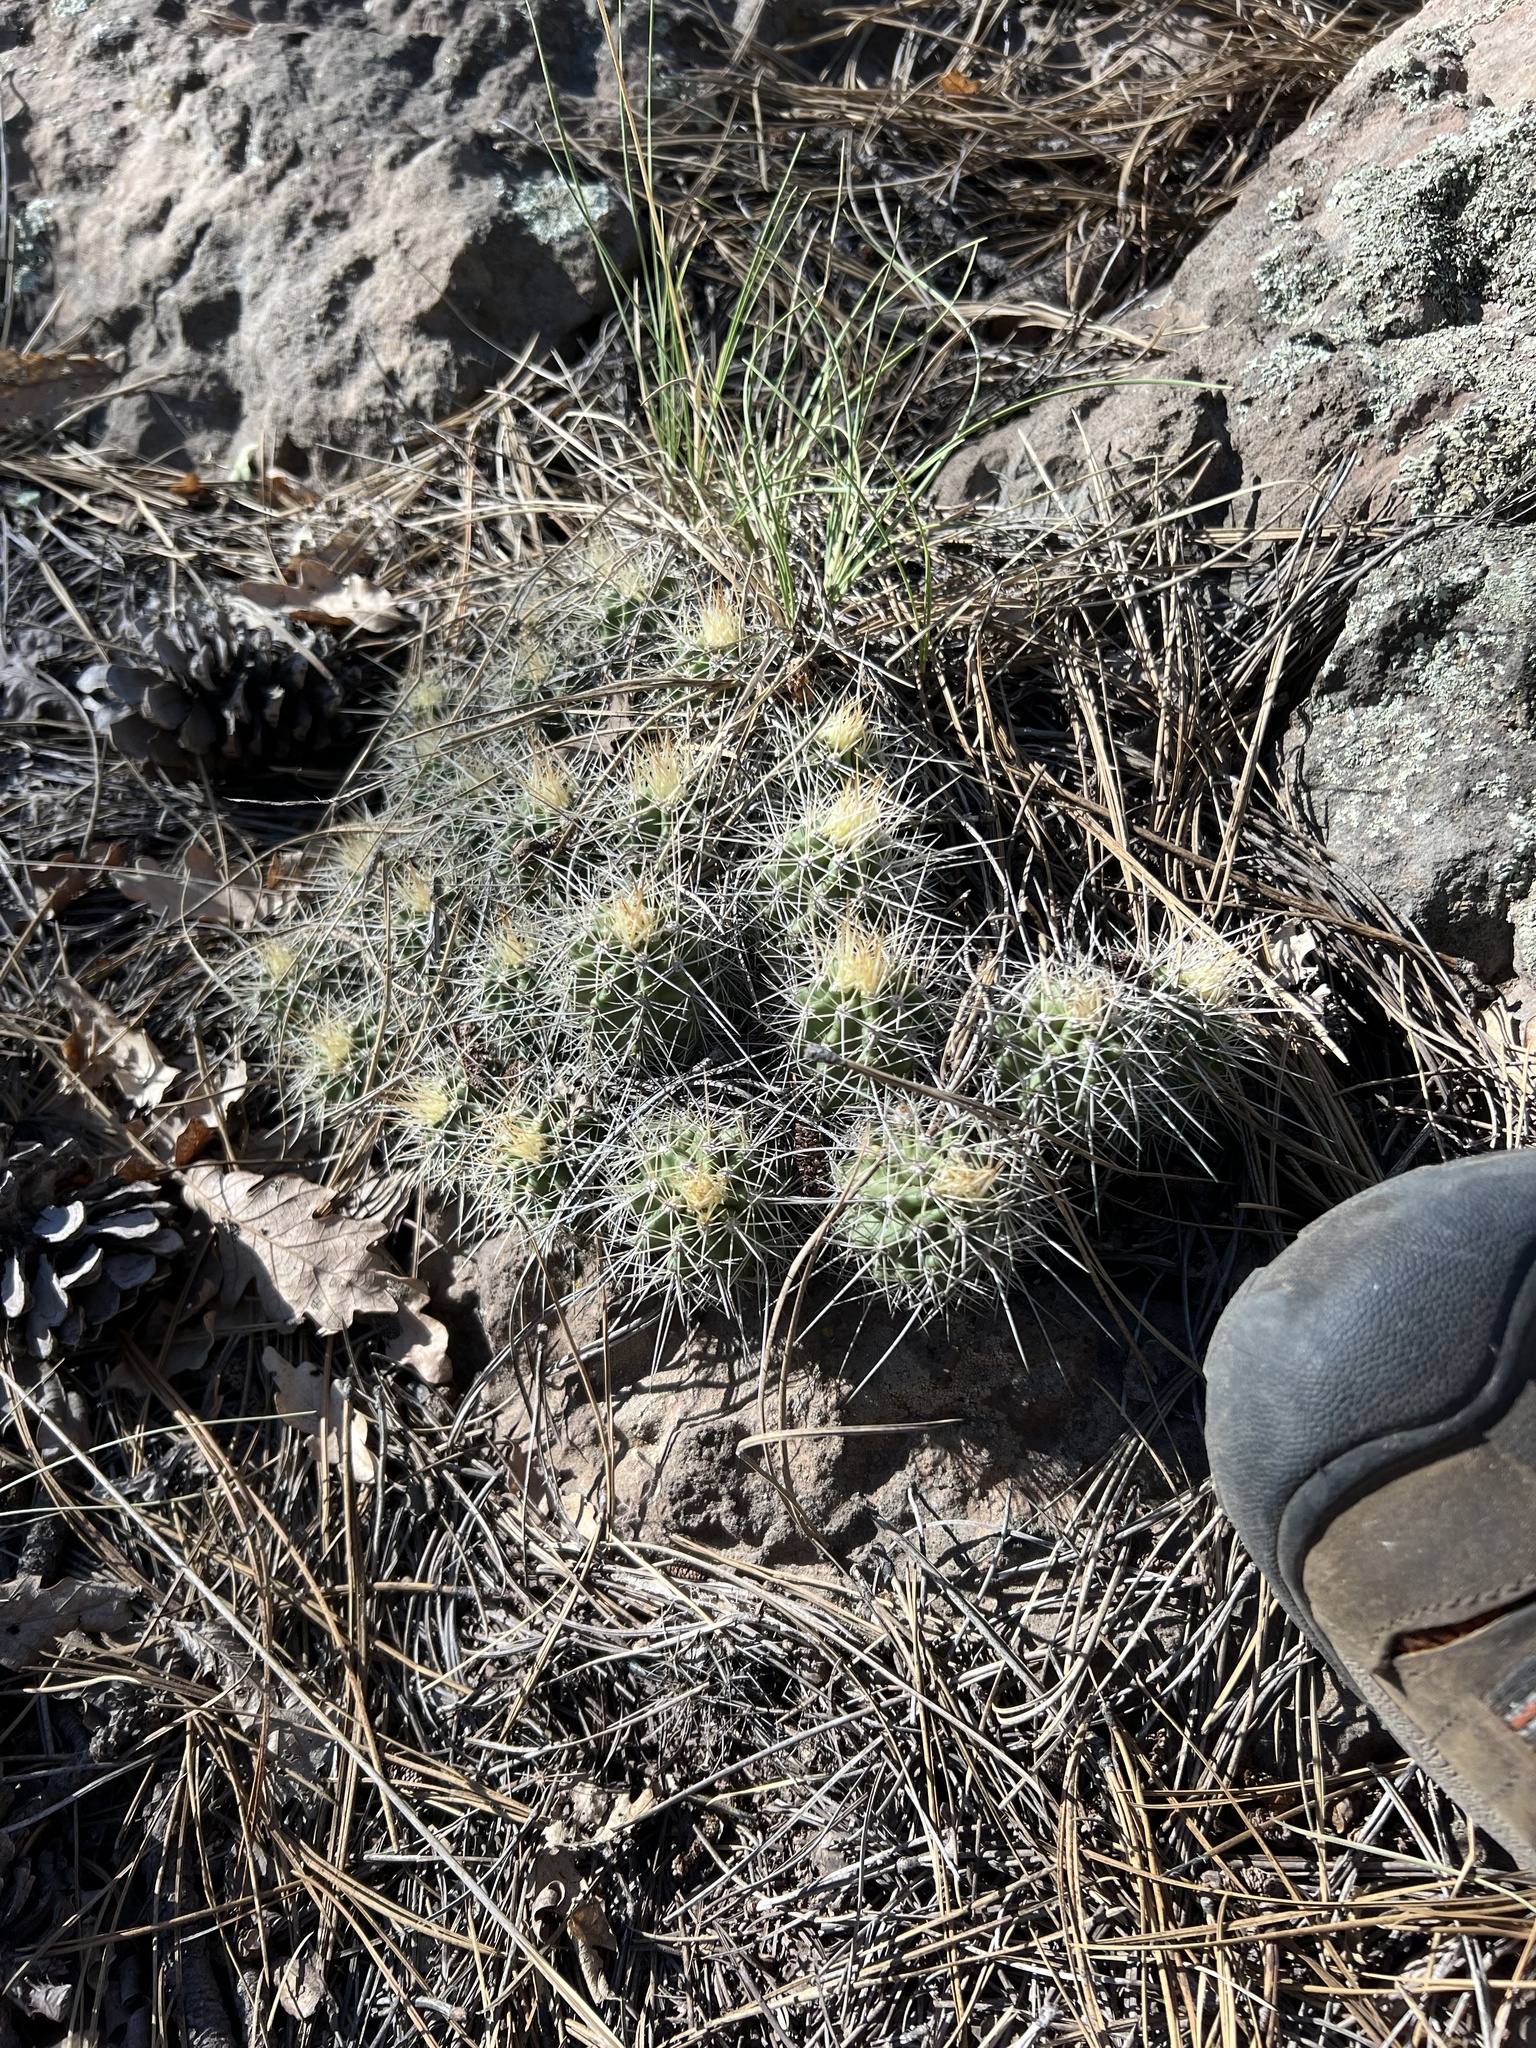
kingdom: Plantae
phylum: Tracheophyta
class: Magnoliopsida
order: Caryophyllales
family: Cactaceae
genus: Echinocereus
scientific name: Echinocereus bakeri
